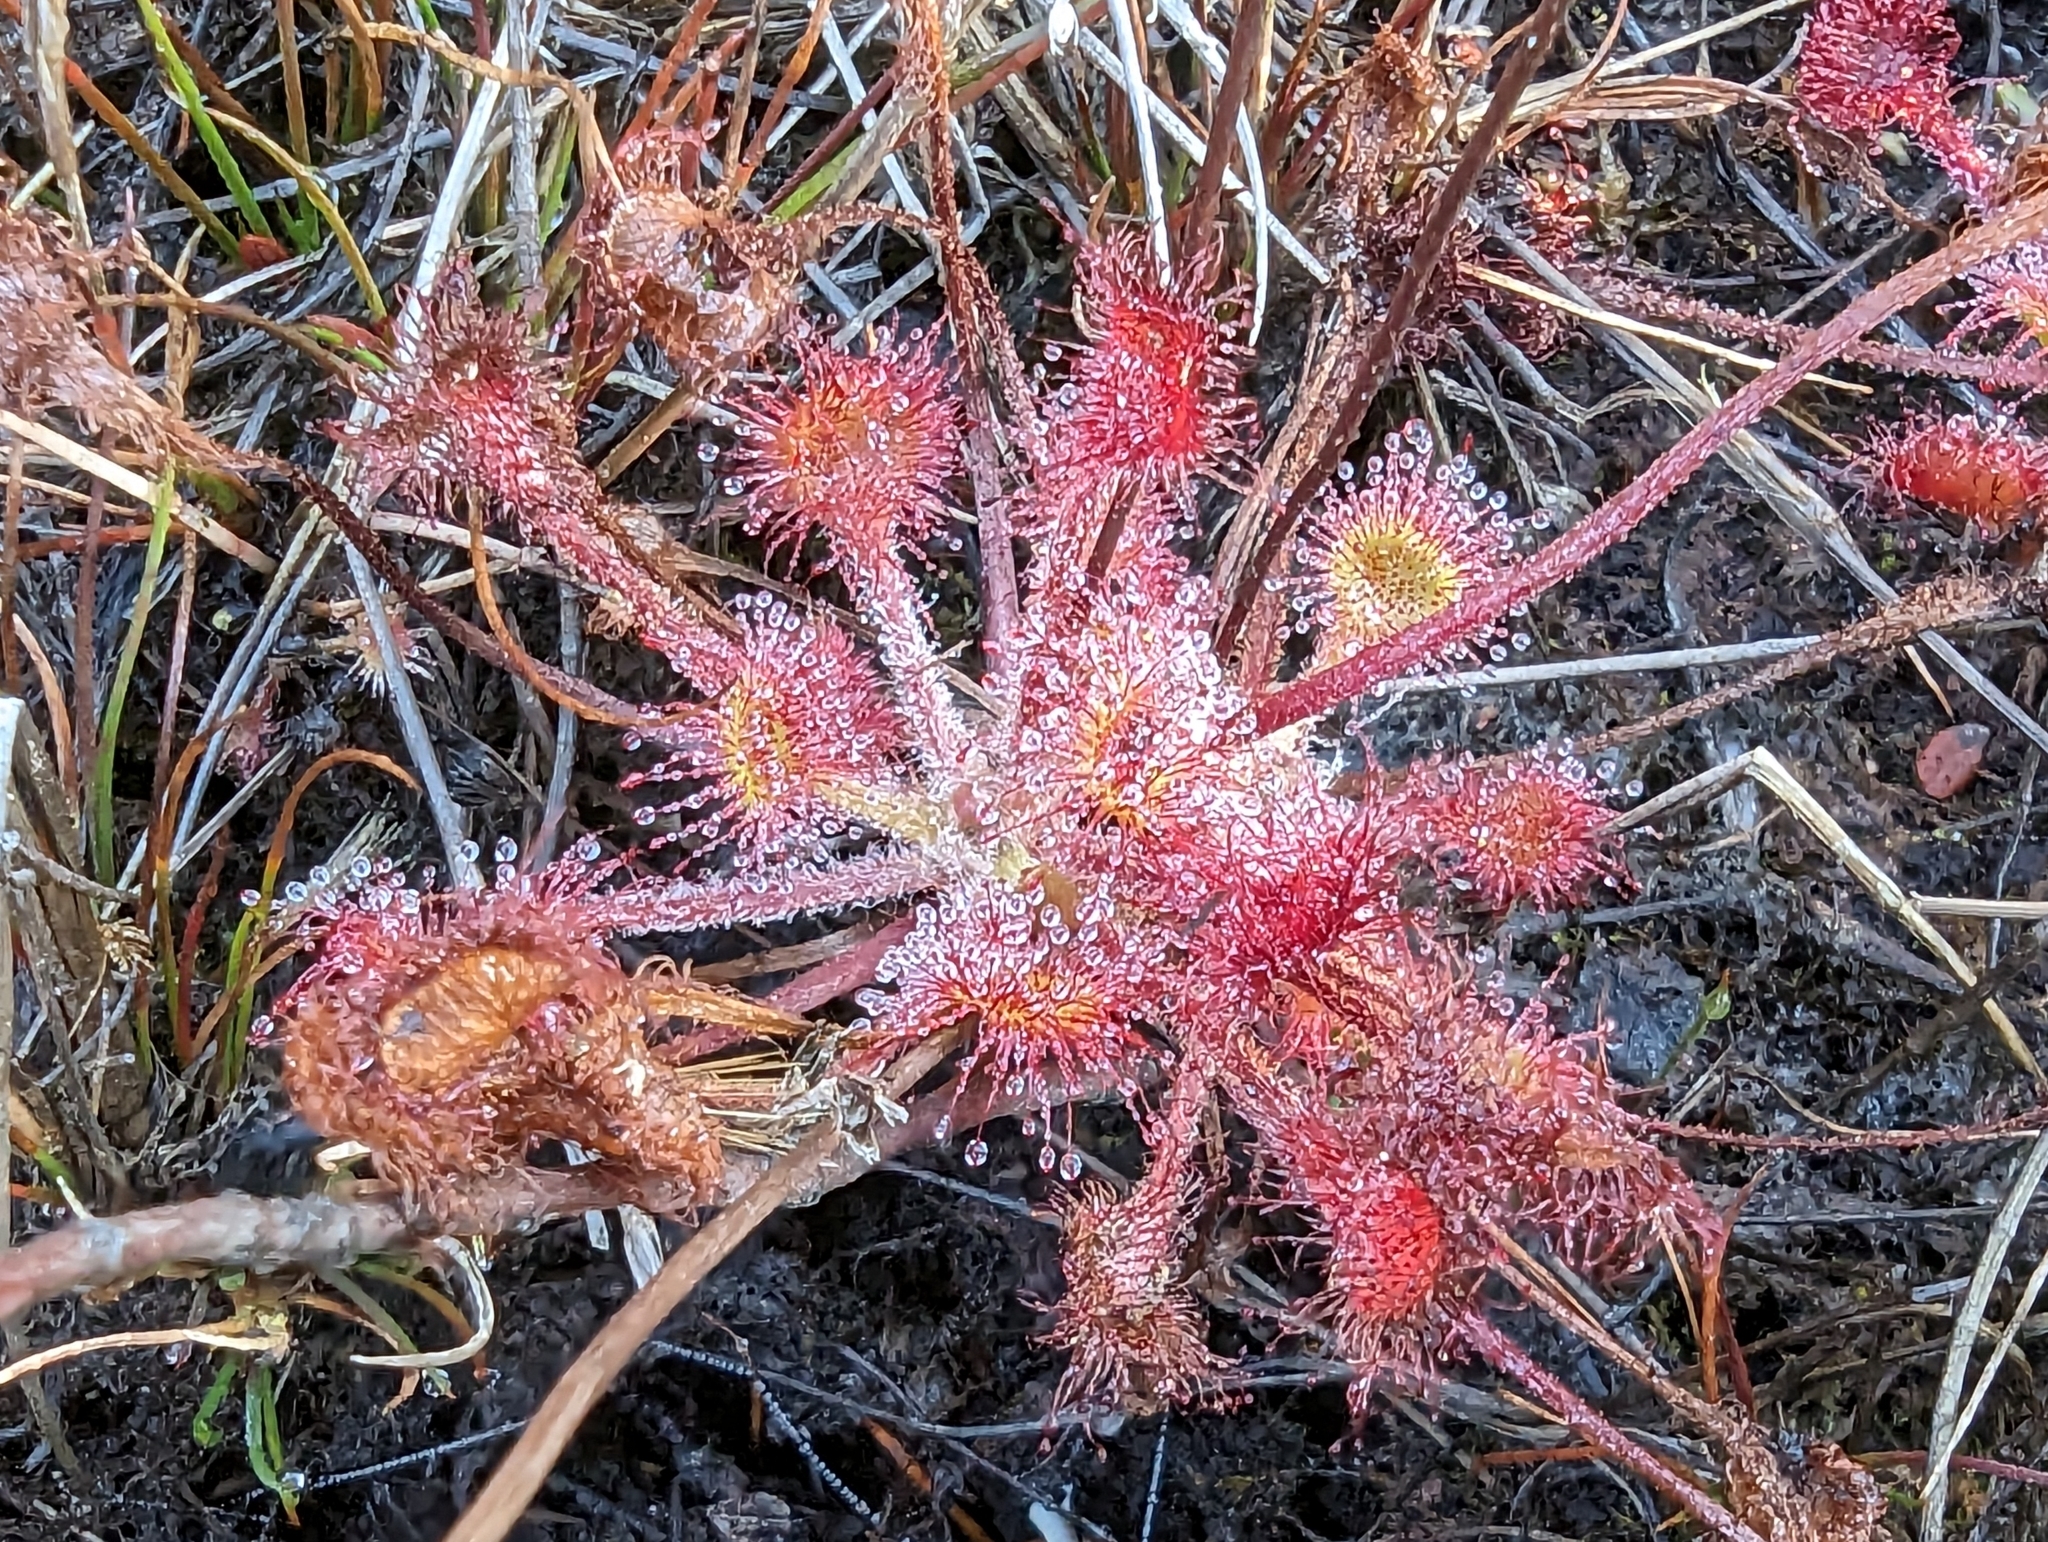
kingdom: Plantae
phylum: Tracheophyta
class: Magnoliopsida
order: Caryophyllales
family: Droseraceae
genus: Drosera
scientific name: Drosera rotundifolia
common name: Round-leaved sundew
